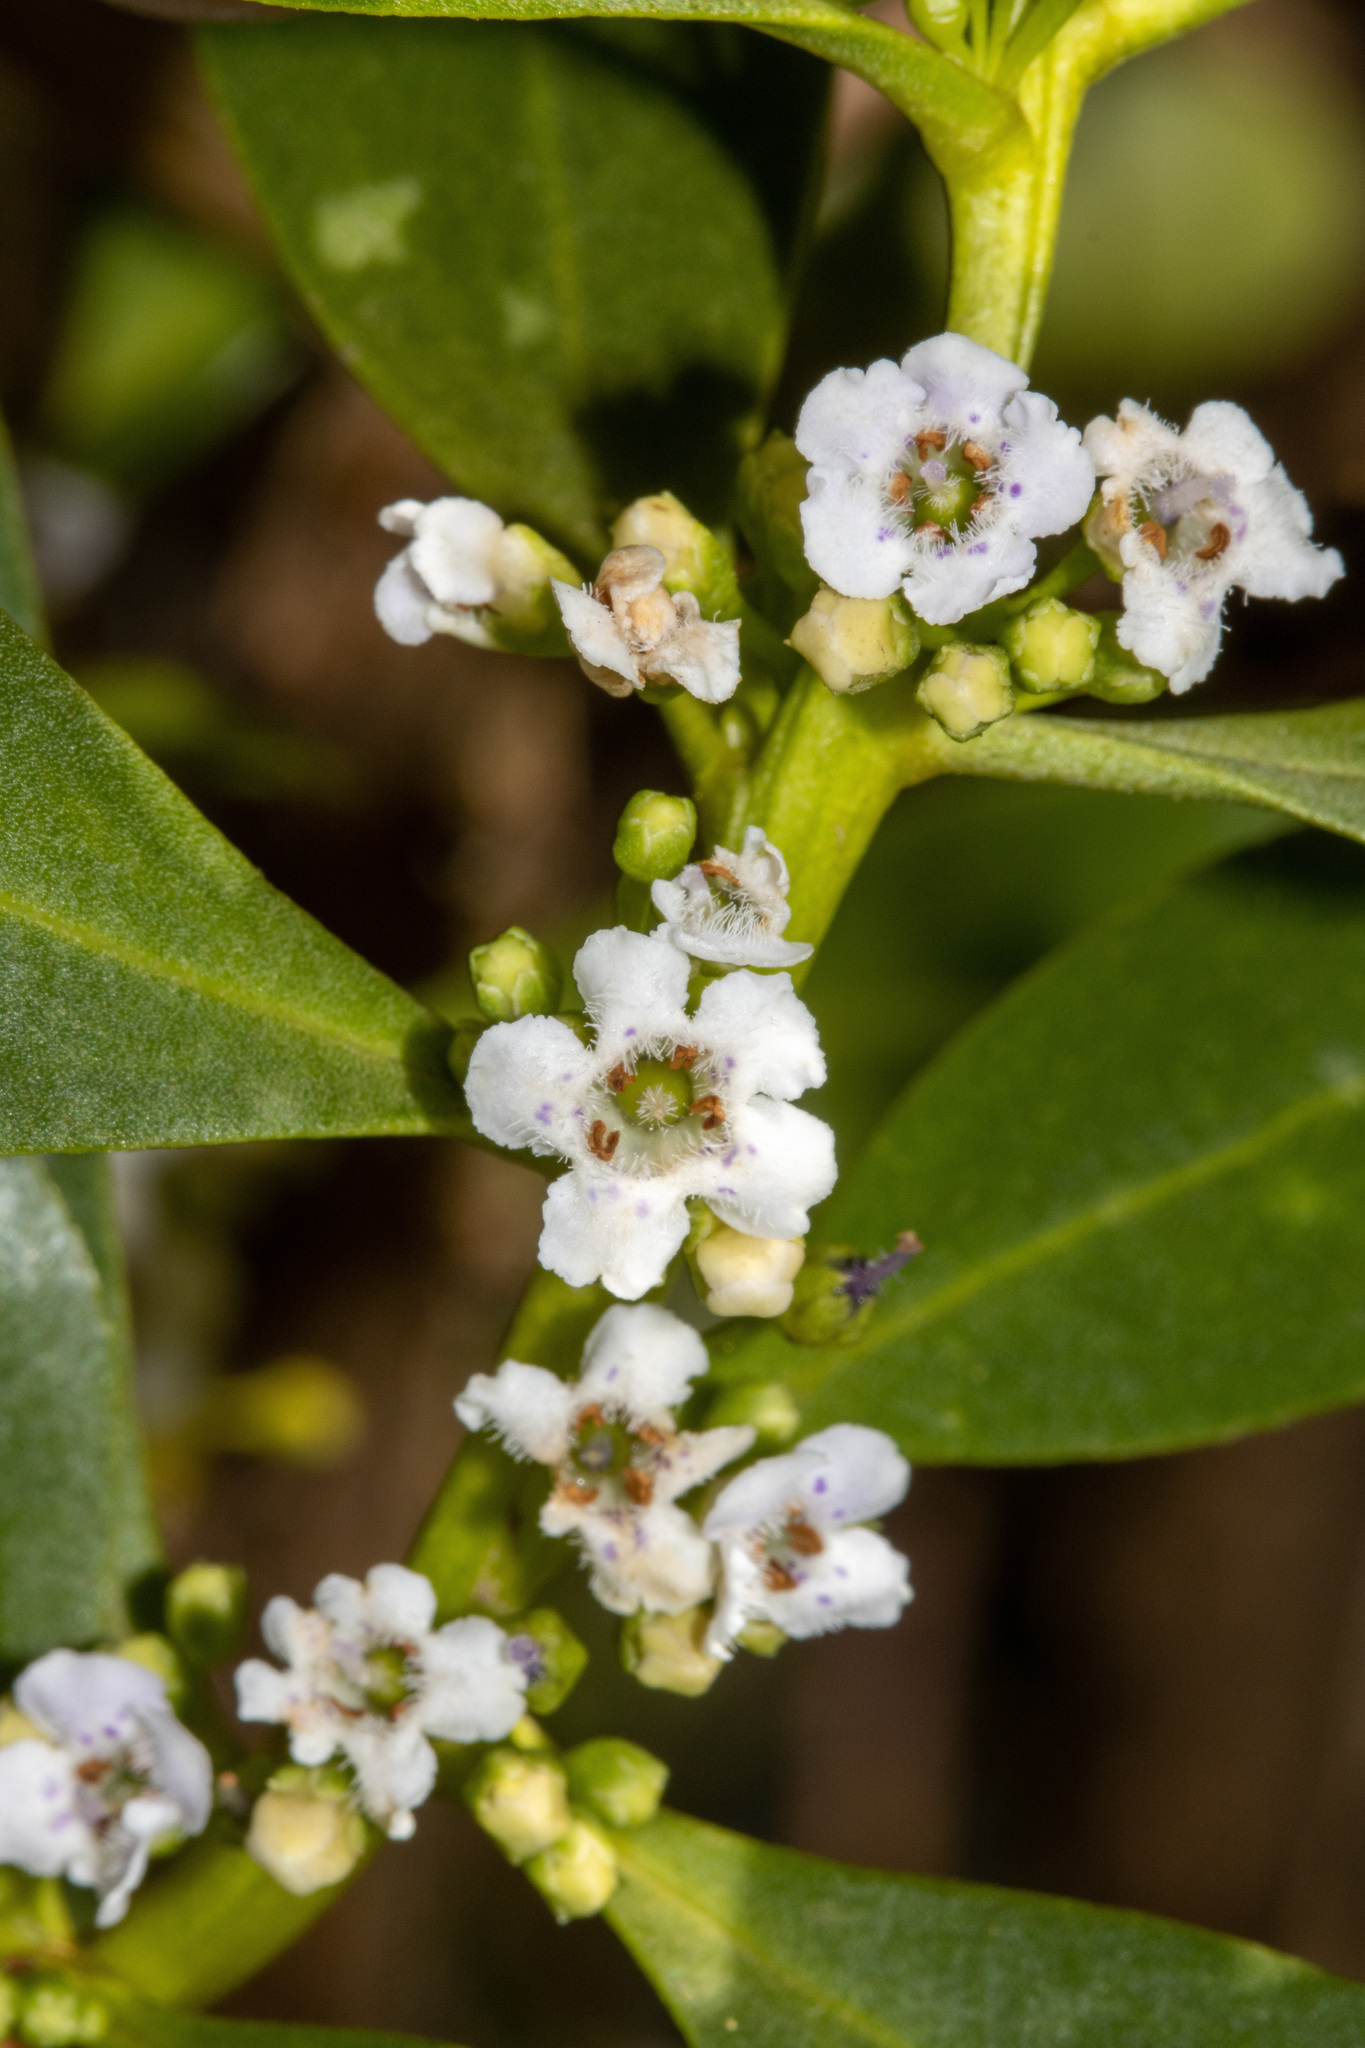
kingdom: Plantae
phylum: Tracheophyta
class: Magnoliopsida
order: Lamiales
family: Scrophulariaceae
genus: Myoporum
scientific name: Myoporum insulare
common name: Common boobialla
